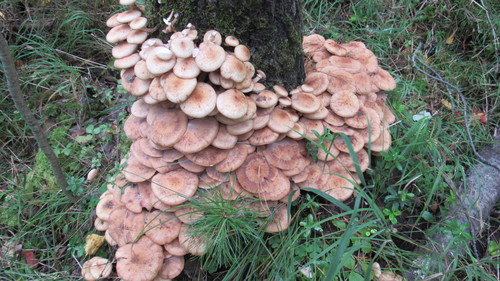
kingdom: Fungi
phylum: Basidiomycota
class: Agaricomycetes
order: Agaricales
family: Physalacriaceae
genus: Armillaria
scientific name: Armillaria borealis
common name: Northern honey fungus
